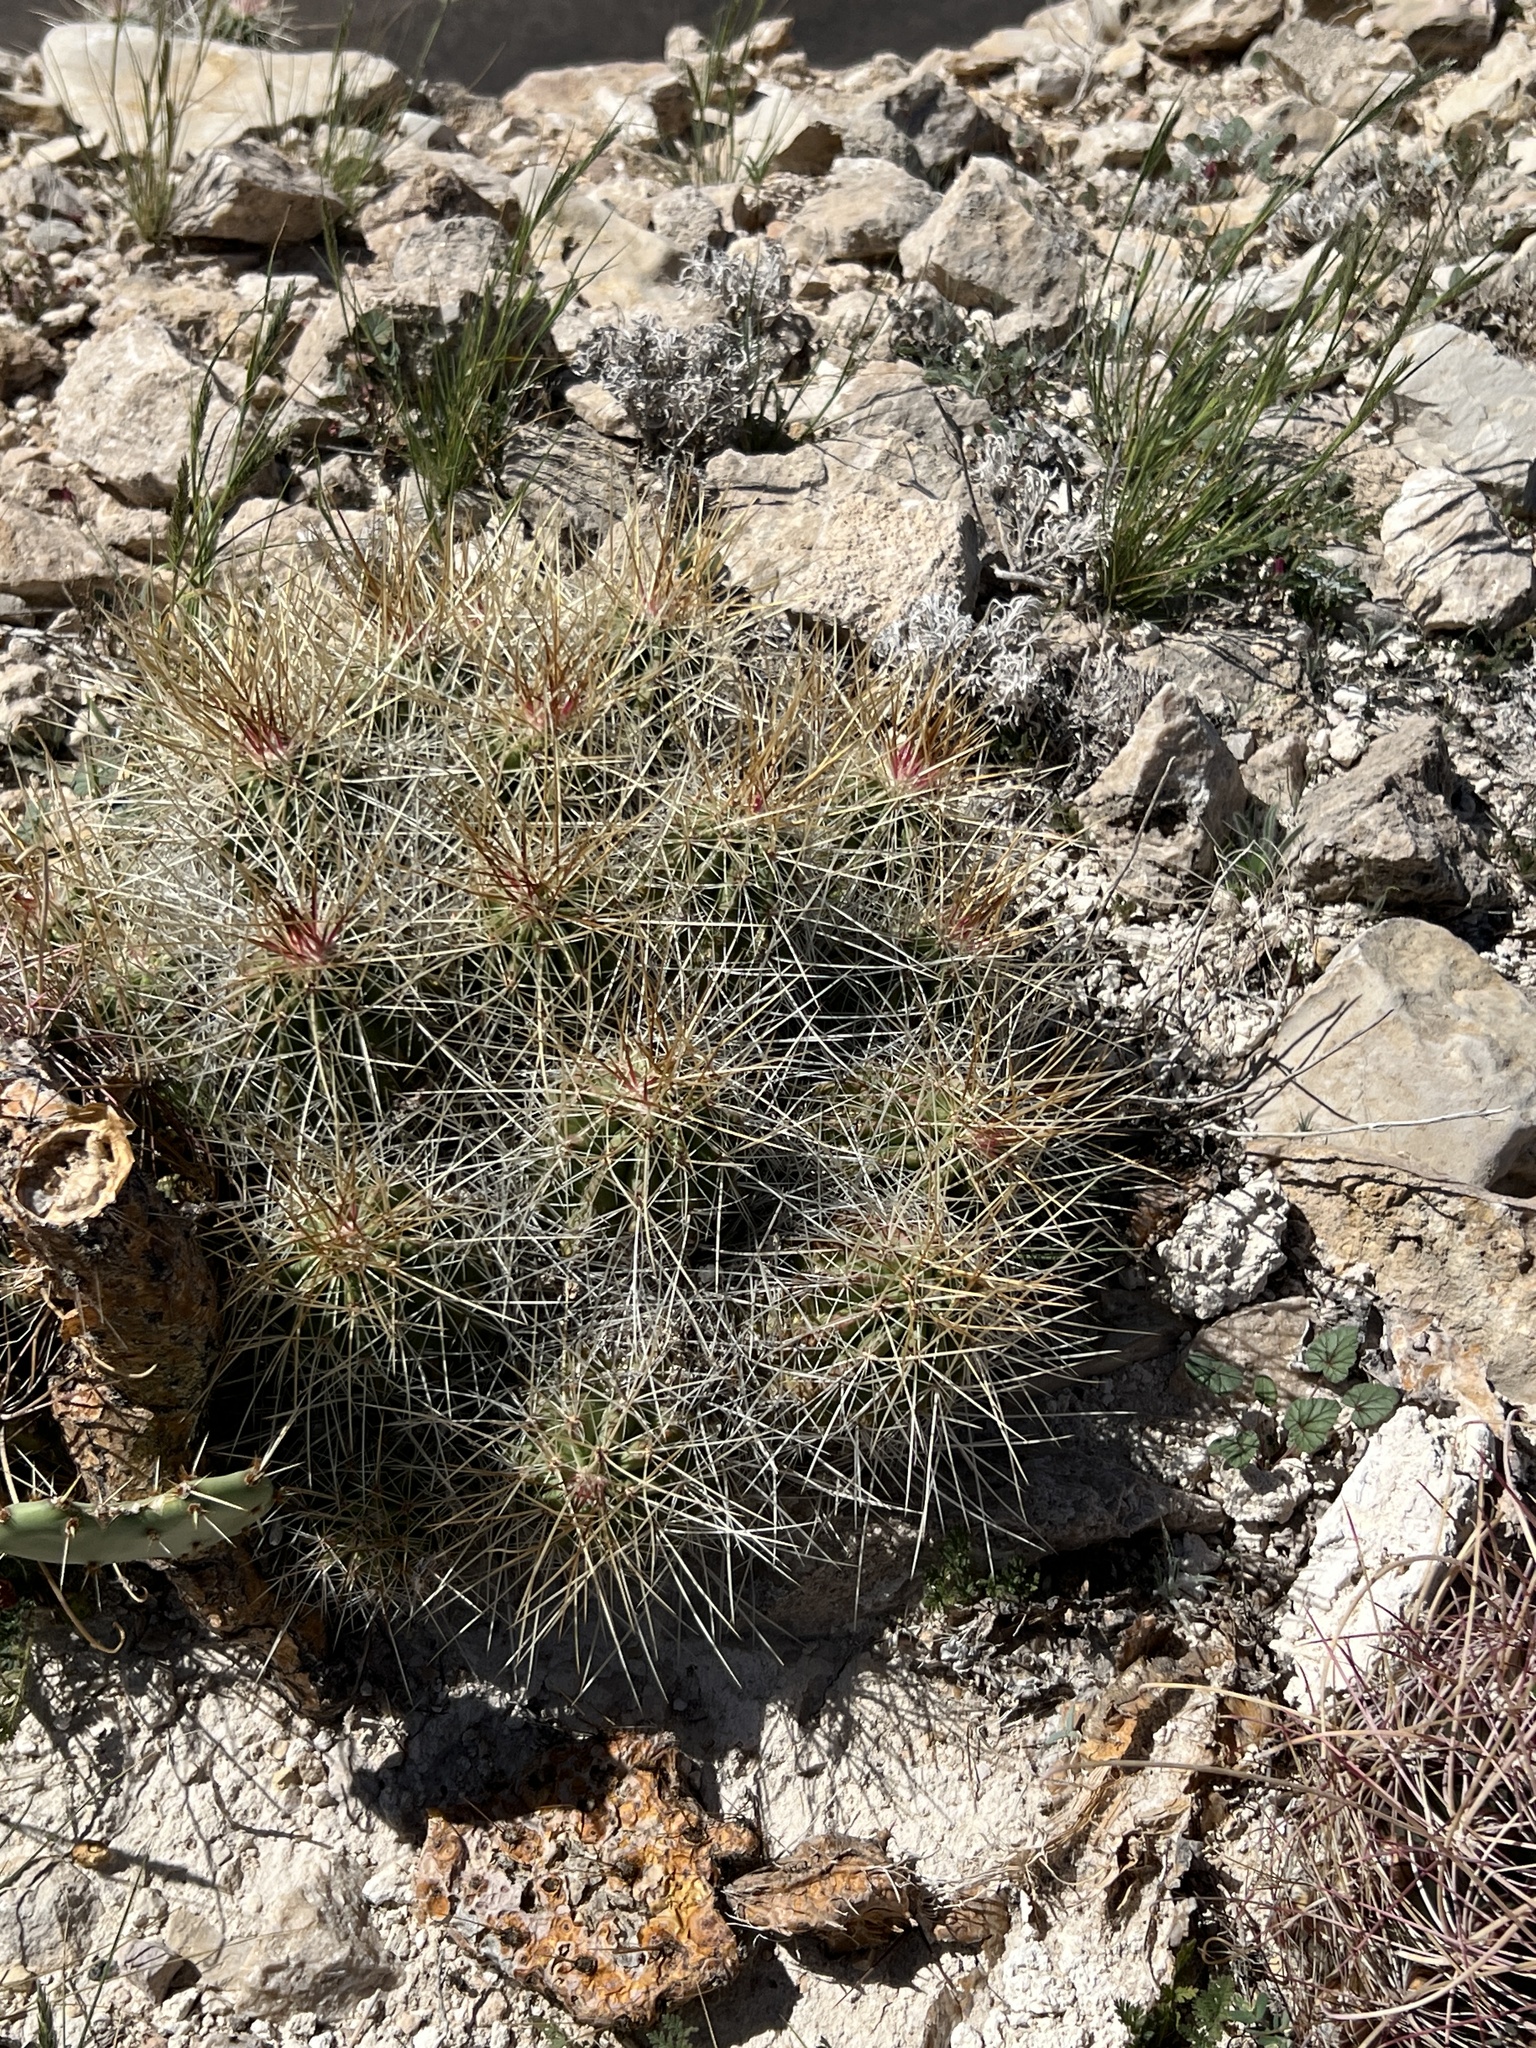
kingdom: Plantae
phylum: Tracheophyta
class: Magnoliopsida
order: Caryophyllales
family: Cactaceae
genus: Echinocereus
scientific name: Echinocereus stramineus
